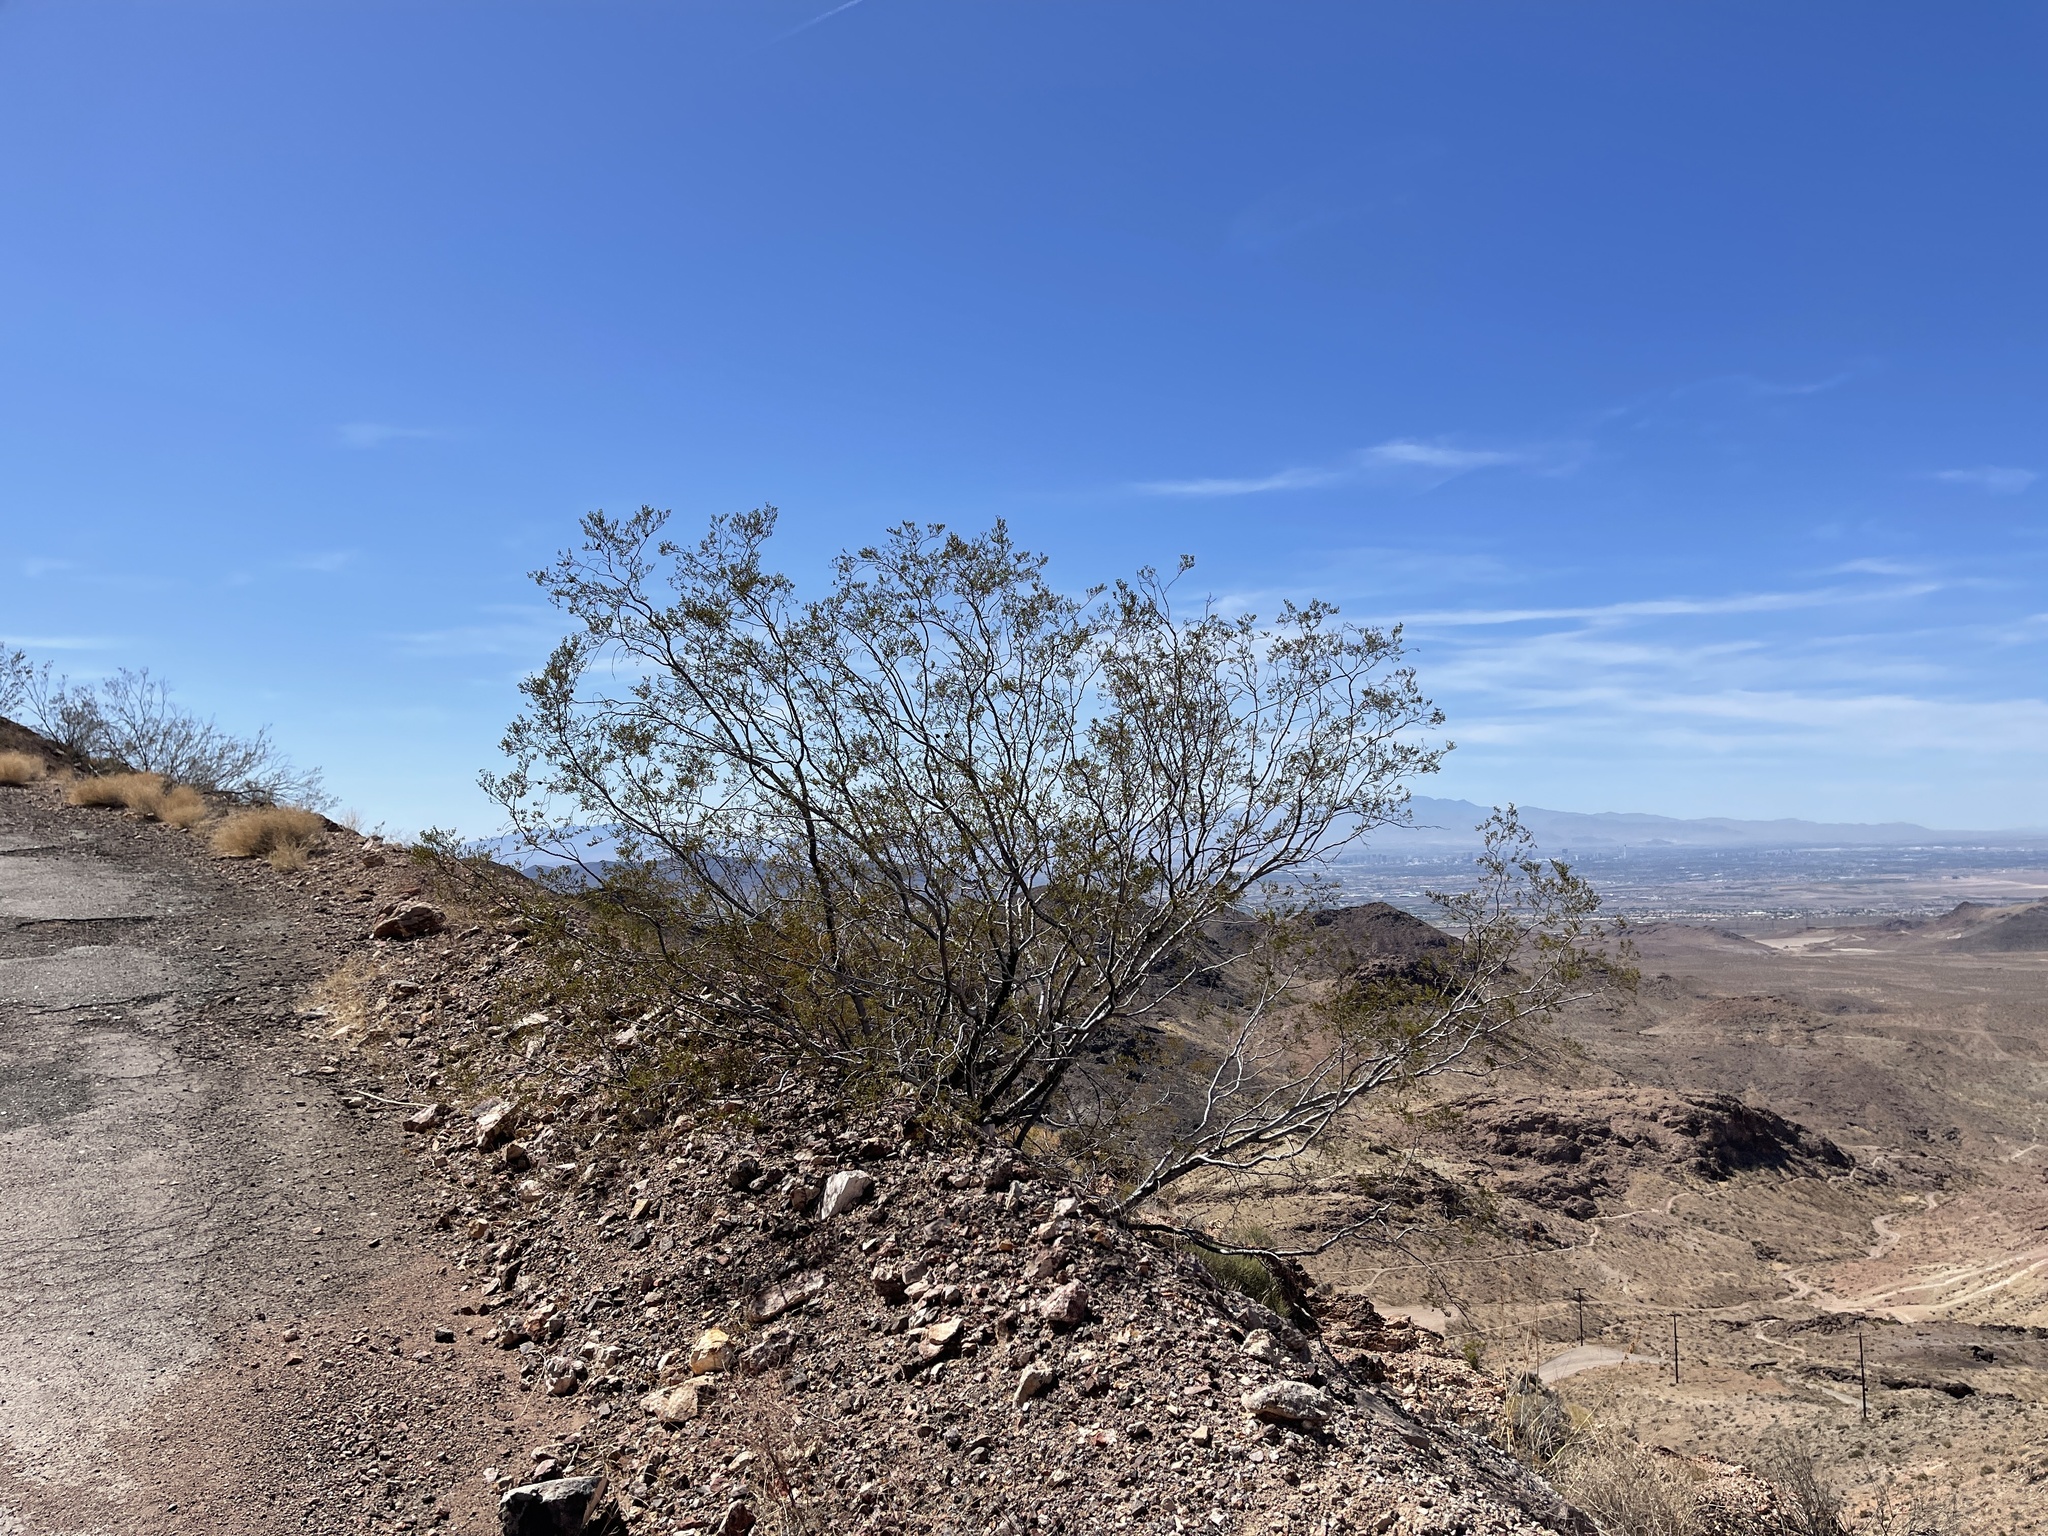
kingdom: Plantae
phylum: Tracheophyta
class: Magnoliopsida
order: Zygophyllales
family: Zygophyllaceae
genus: Larrea
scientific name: Larrea tridentata
